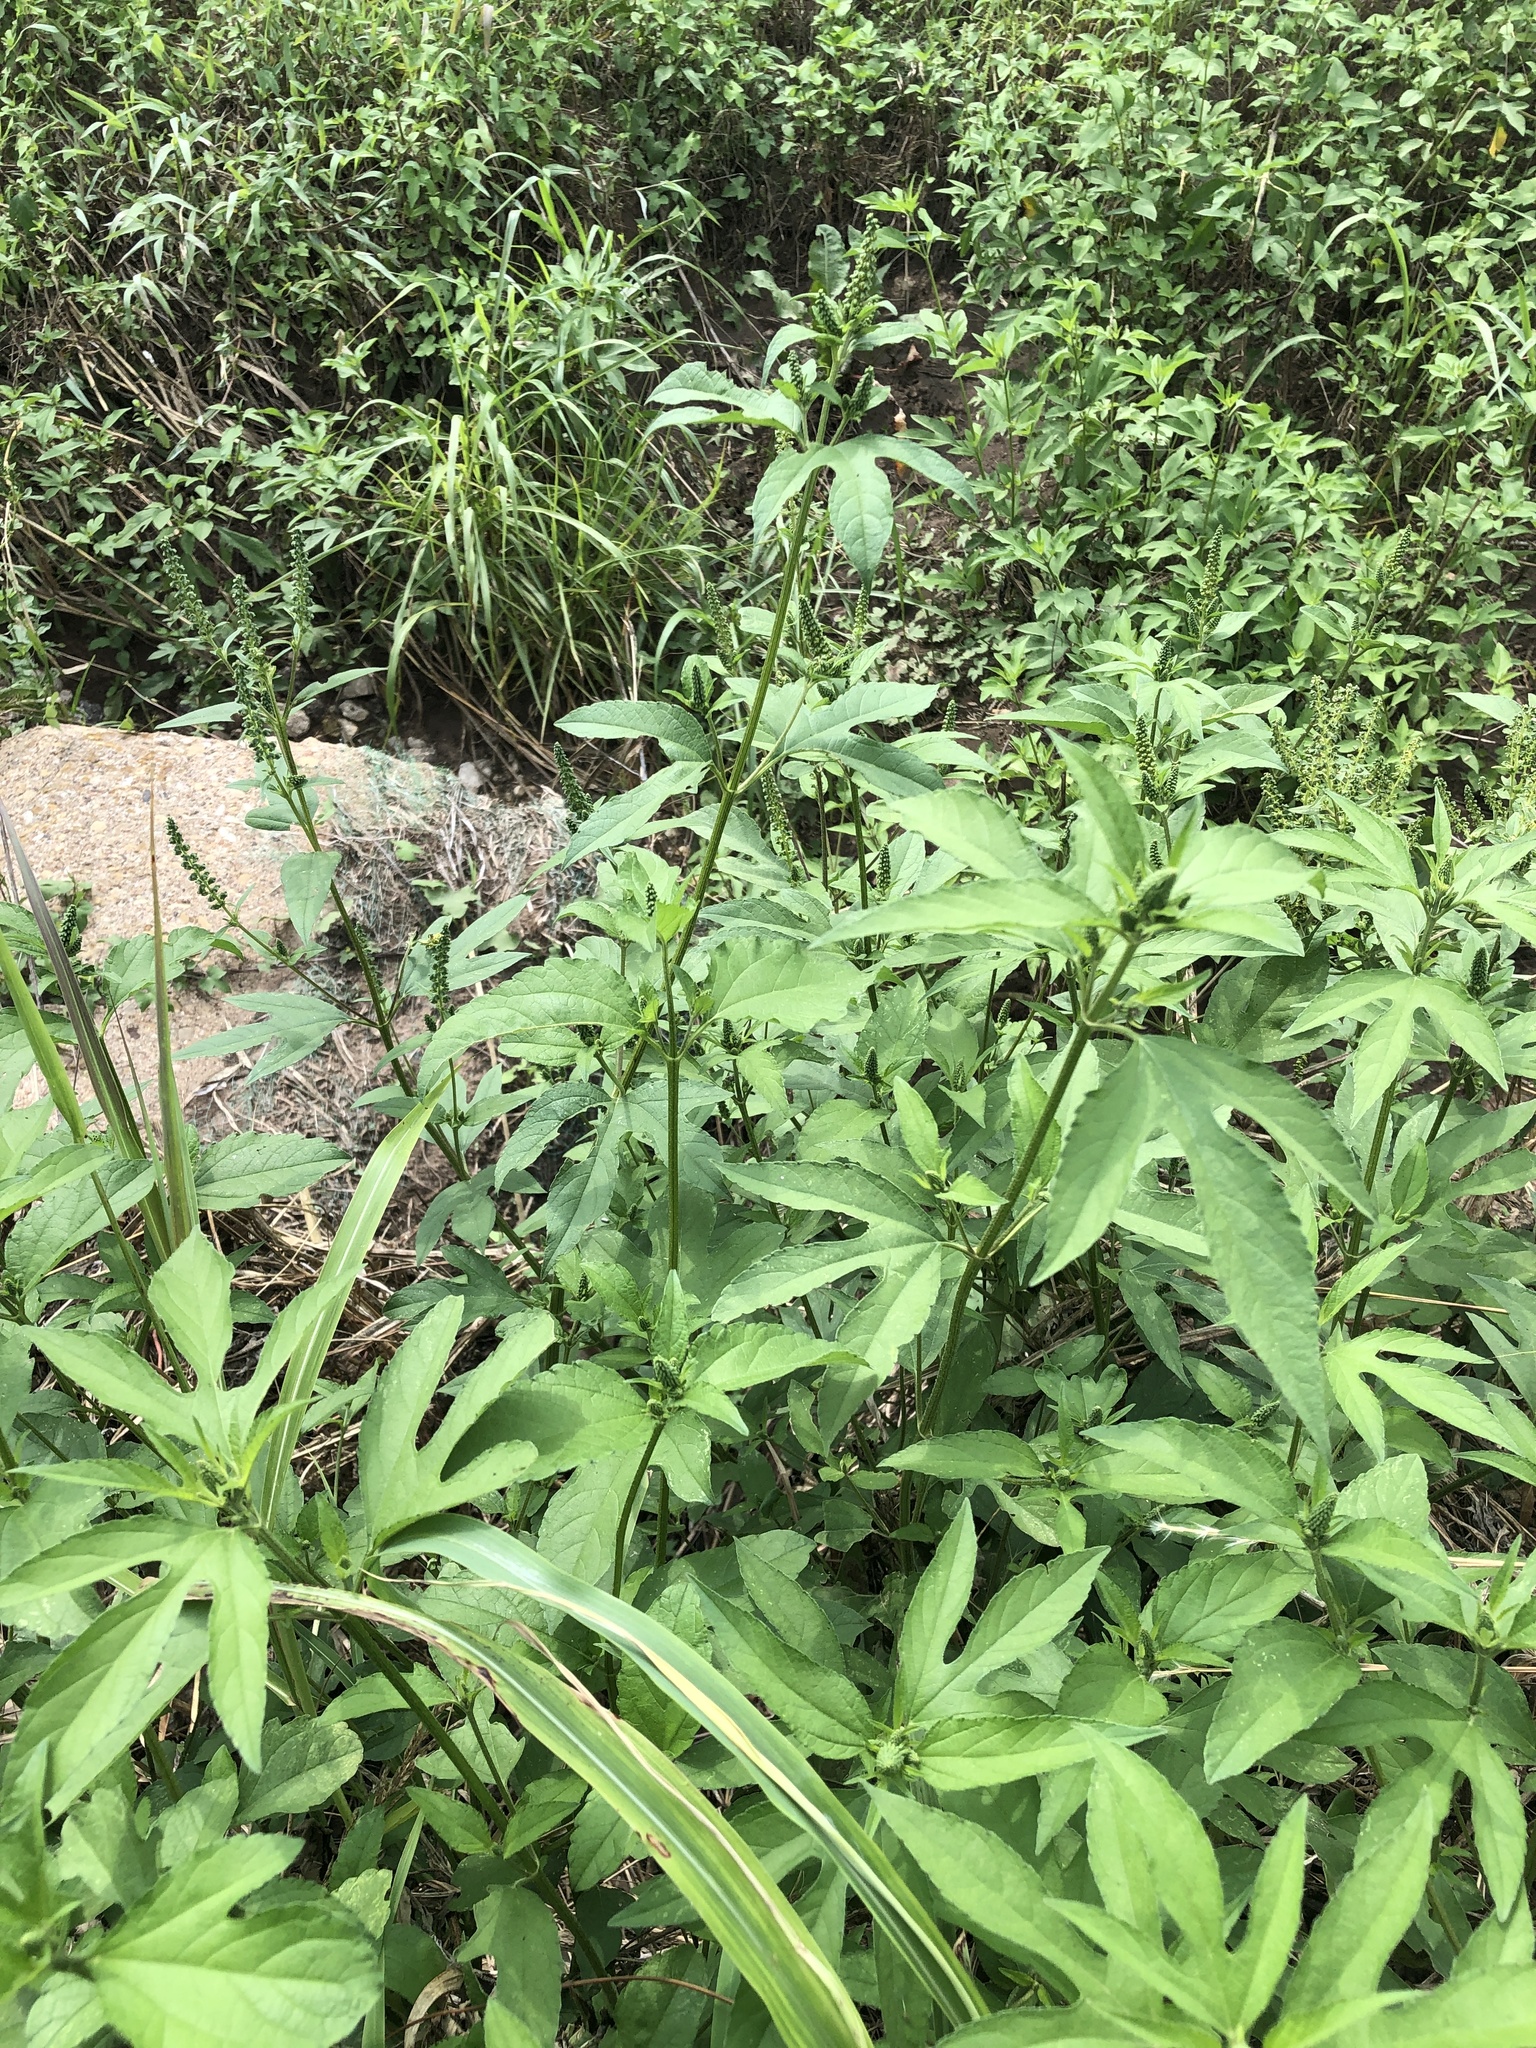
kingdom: Plantae
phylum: Tracheophyta
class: Magnoliopsida
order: Asterales
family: Asteraceae
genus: Ambrosia
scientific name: Ambrosia trifida
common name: Giant ragweed
